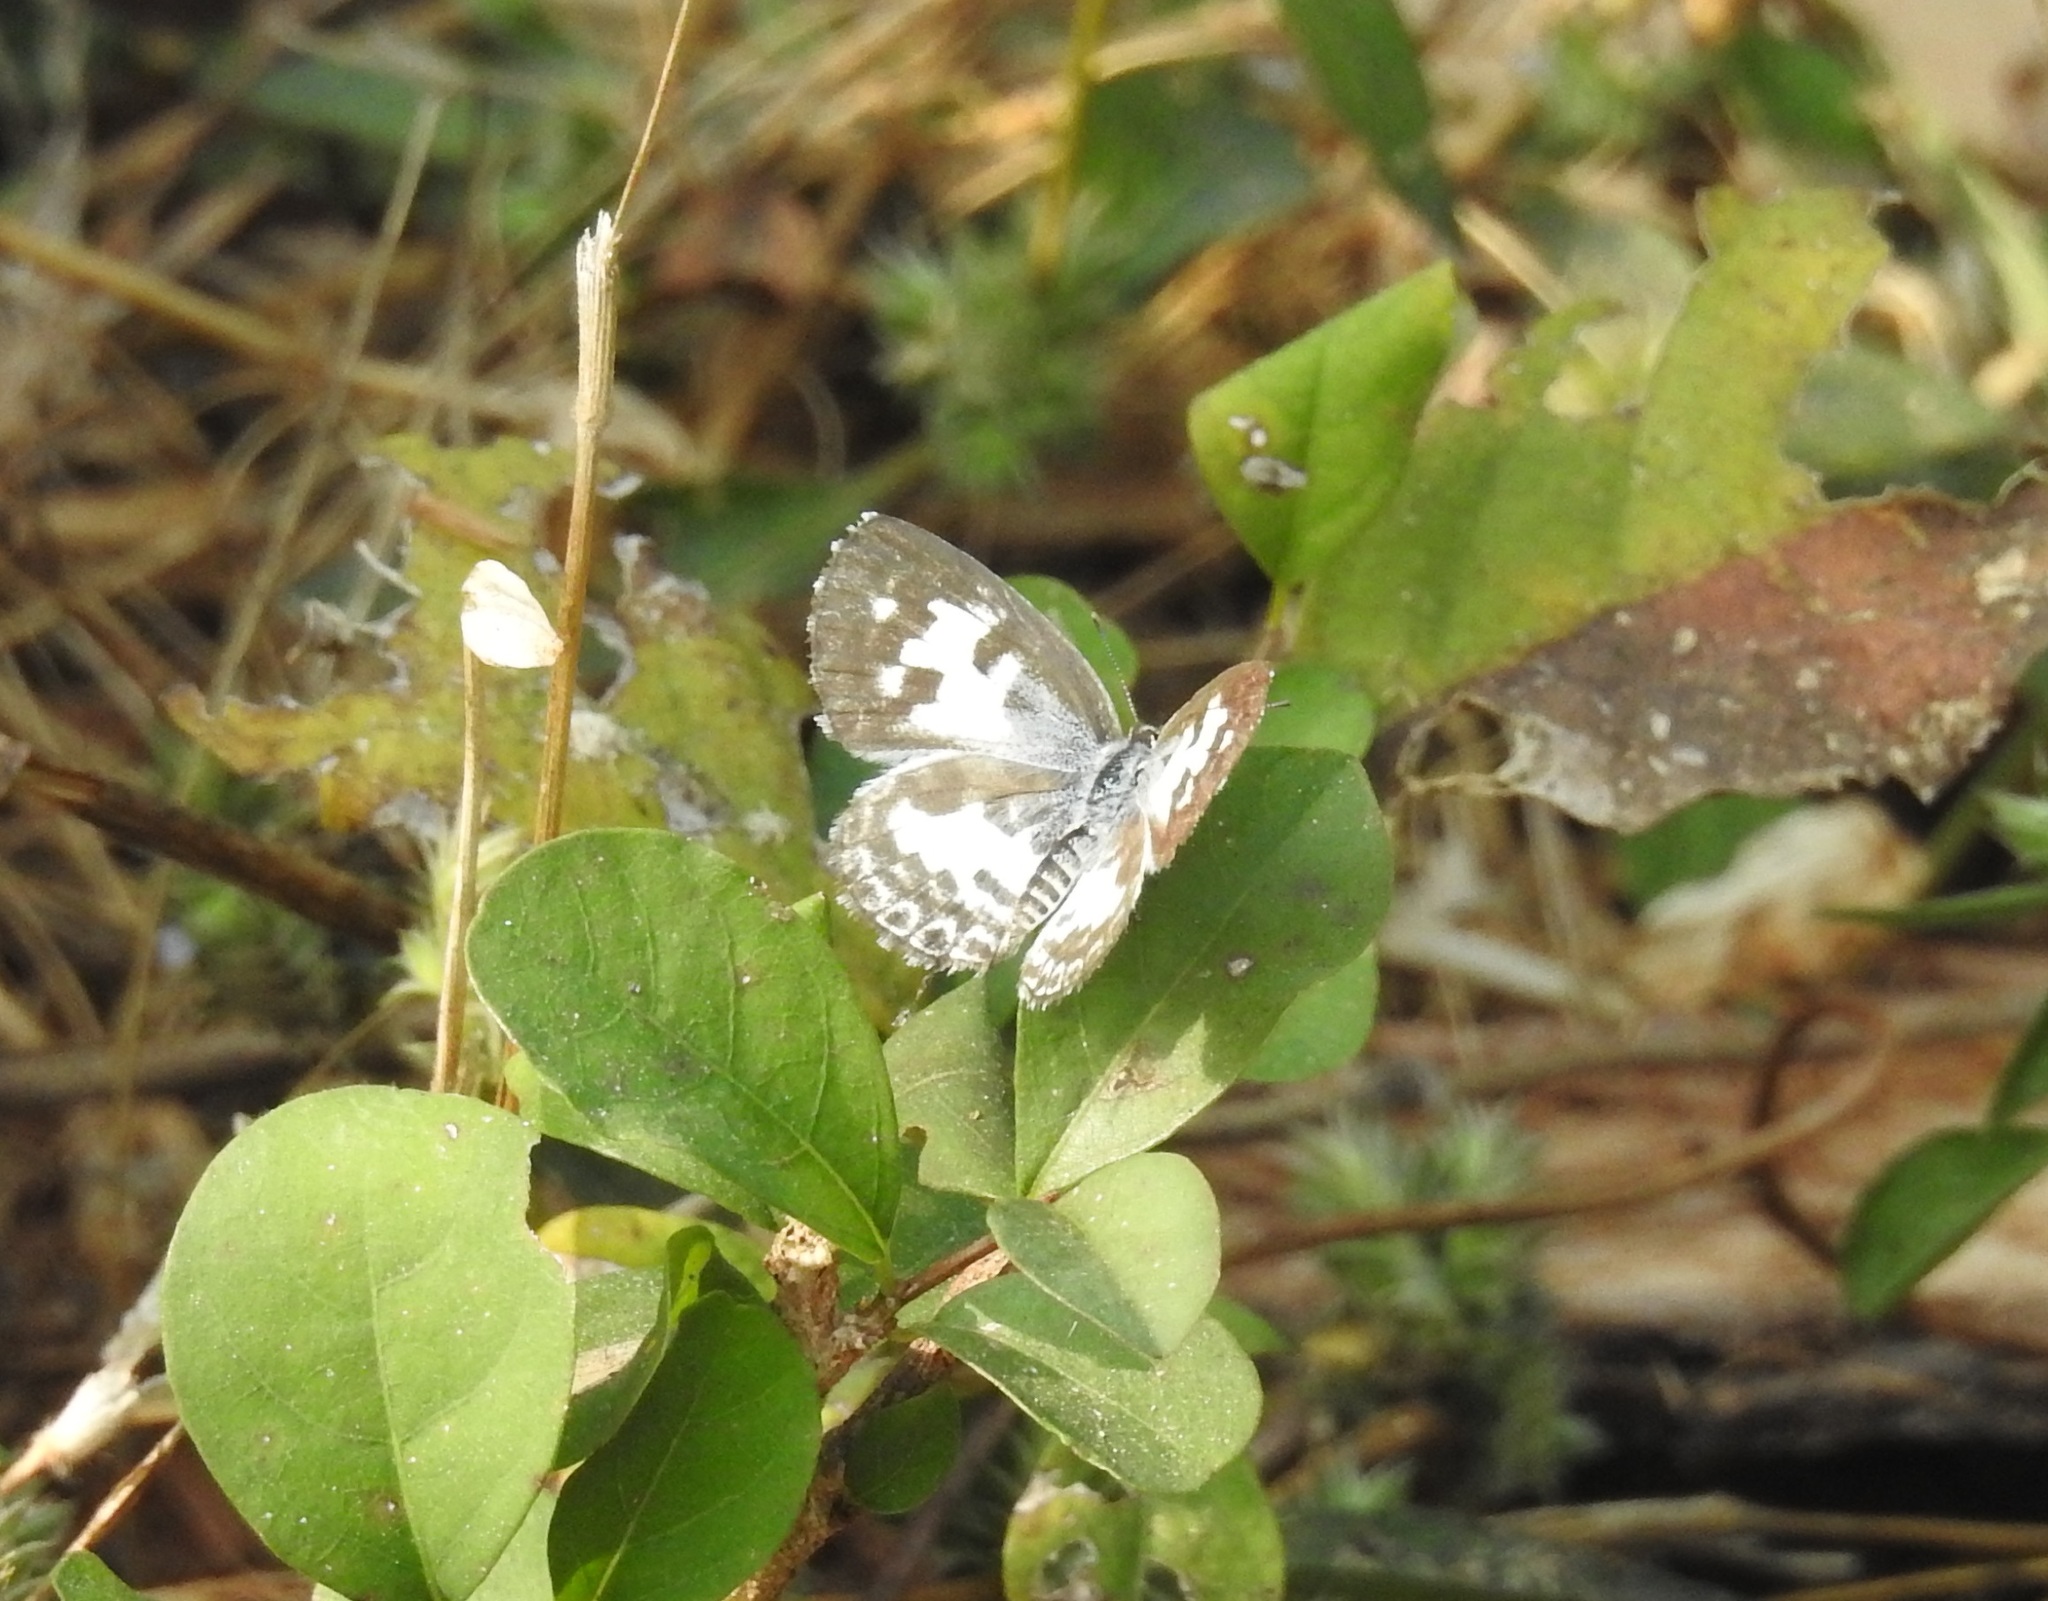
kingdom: Animalia
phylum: Arthropoda
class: Insecta
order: Lepidoptera
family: Lycaenidae
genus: Castalius
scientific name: Castalius rosimon
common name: Common pierrot
